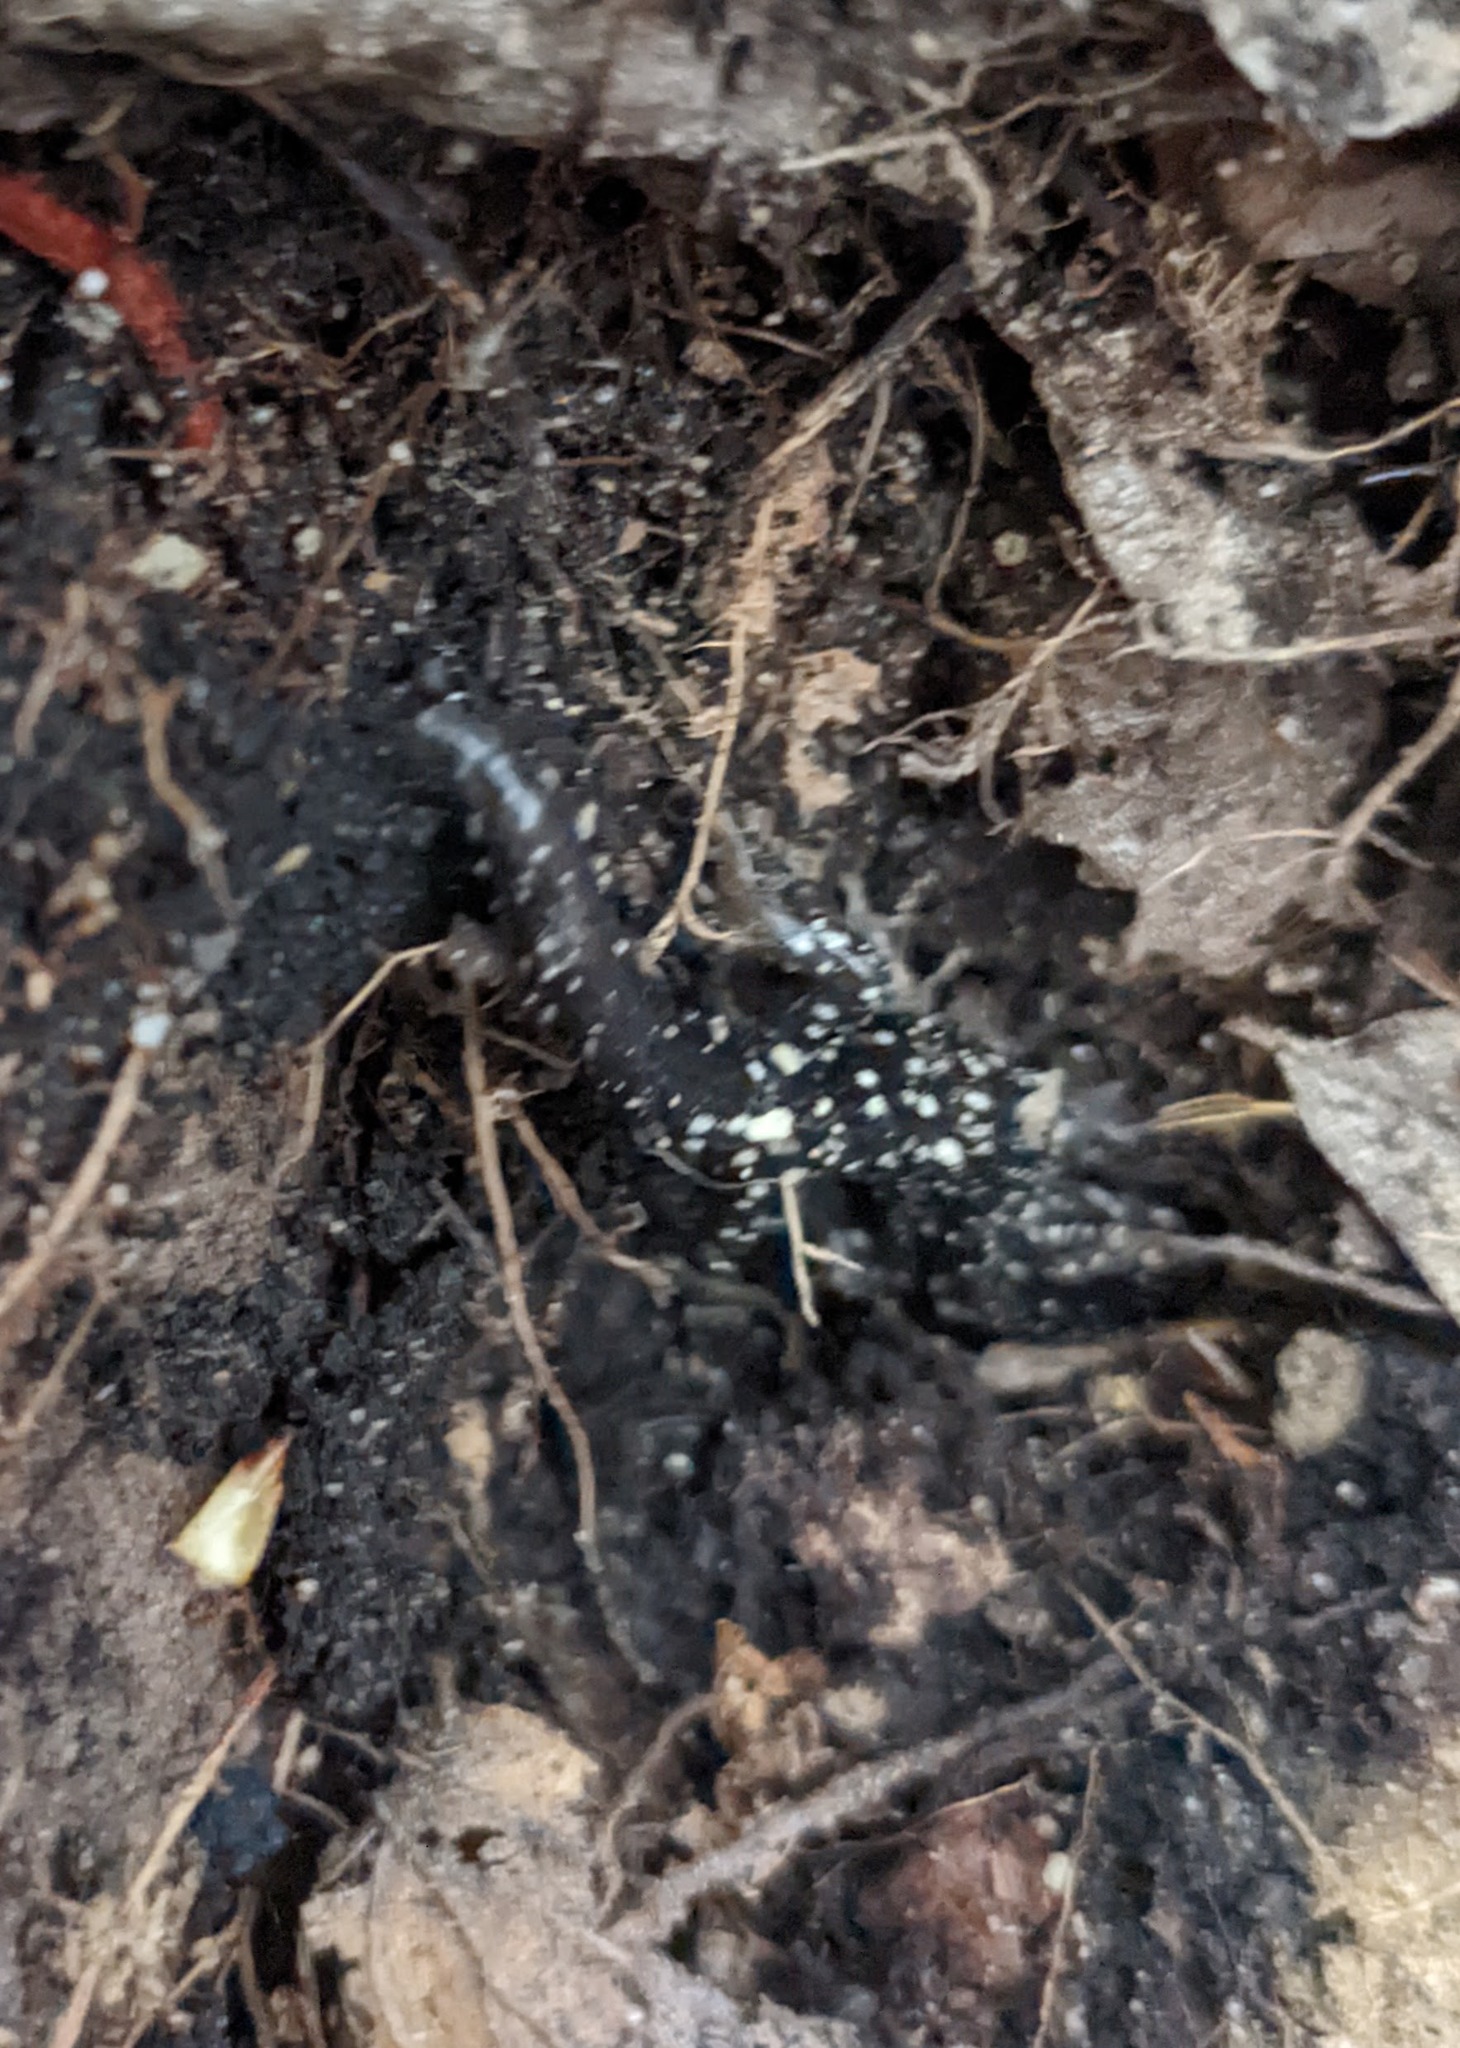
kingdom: Animalia
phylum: Chordata
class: Amphibia
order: Caudata
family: Plethodontidae
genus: Plethodon
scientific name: Plethodon glutinosus
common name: Northern slimy salamander
